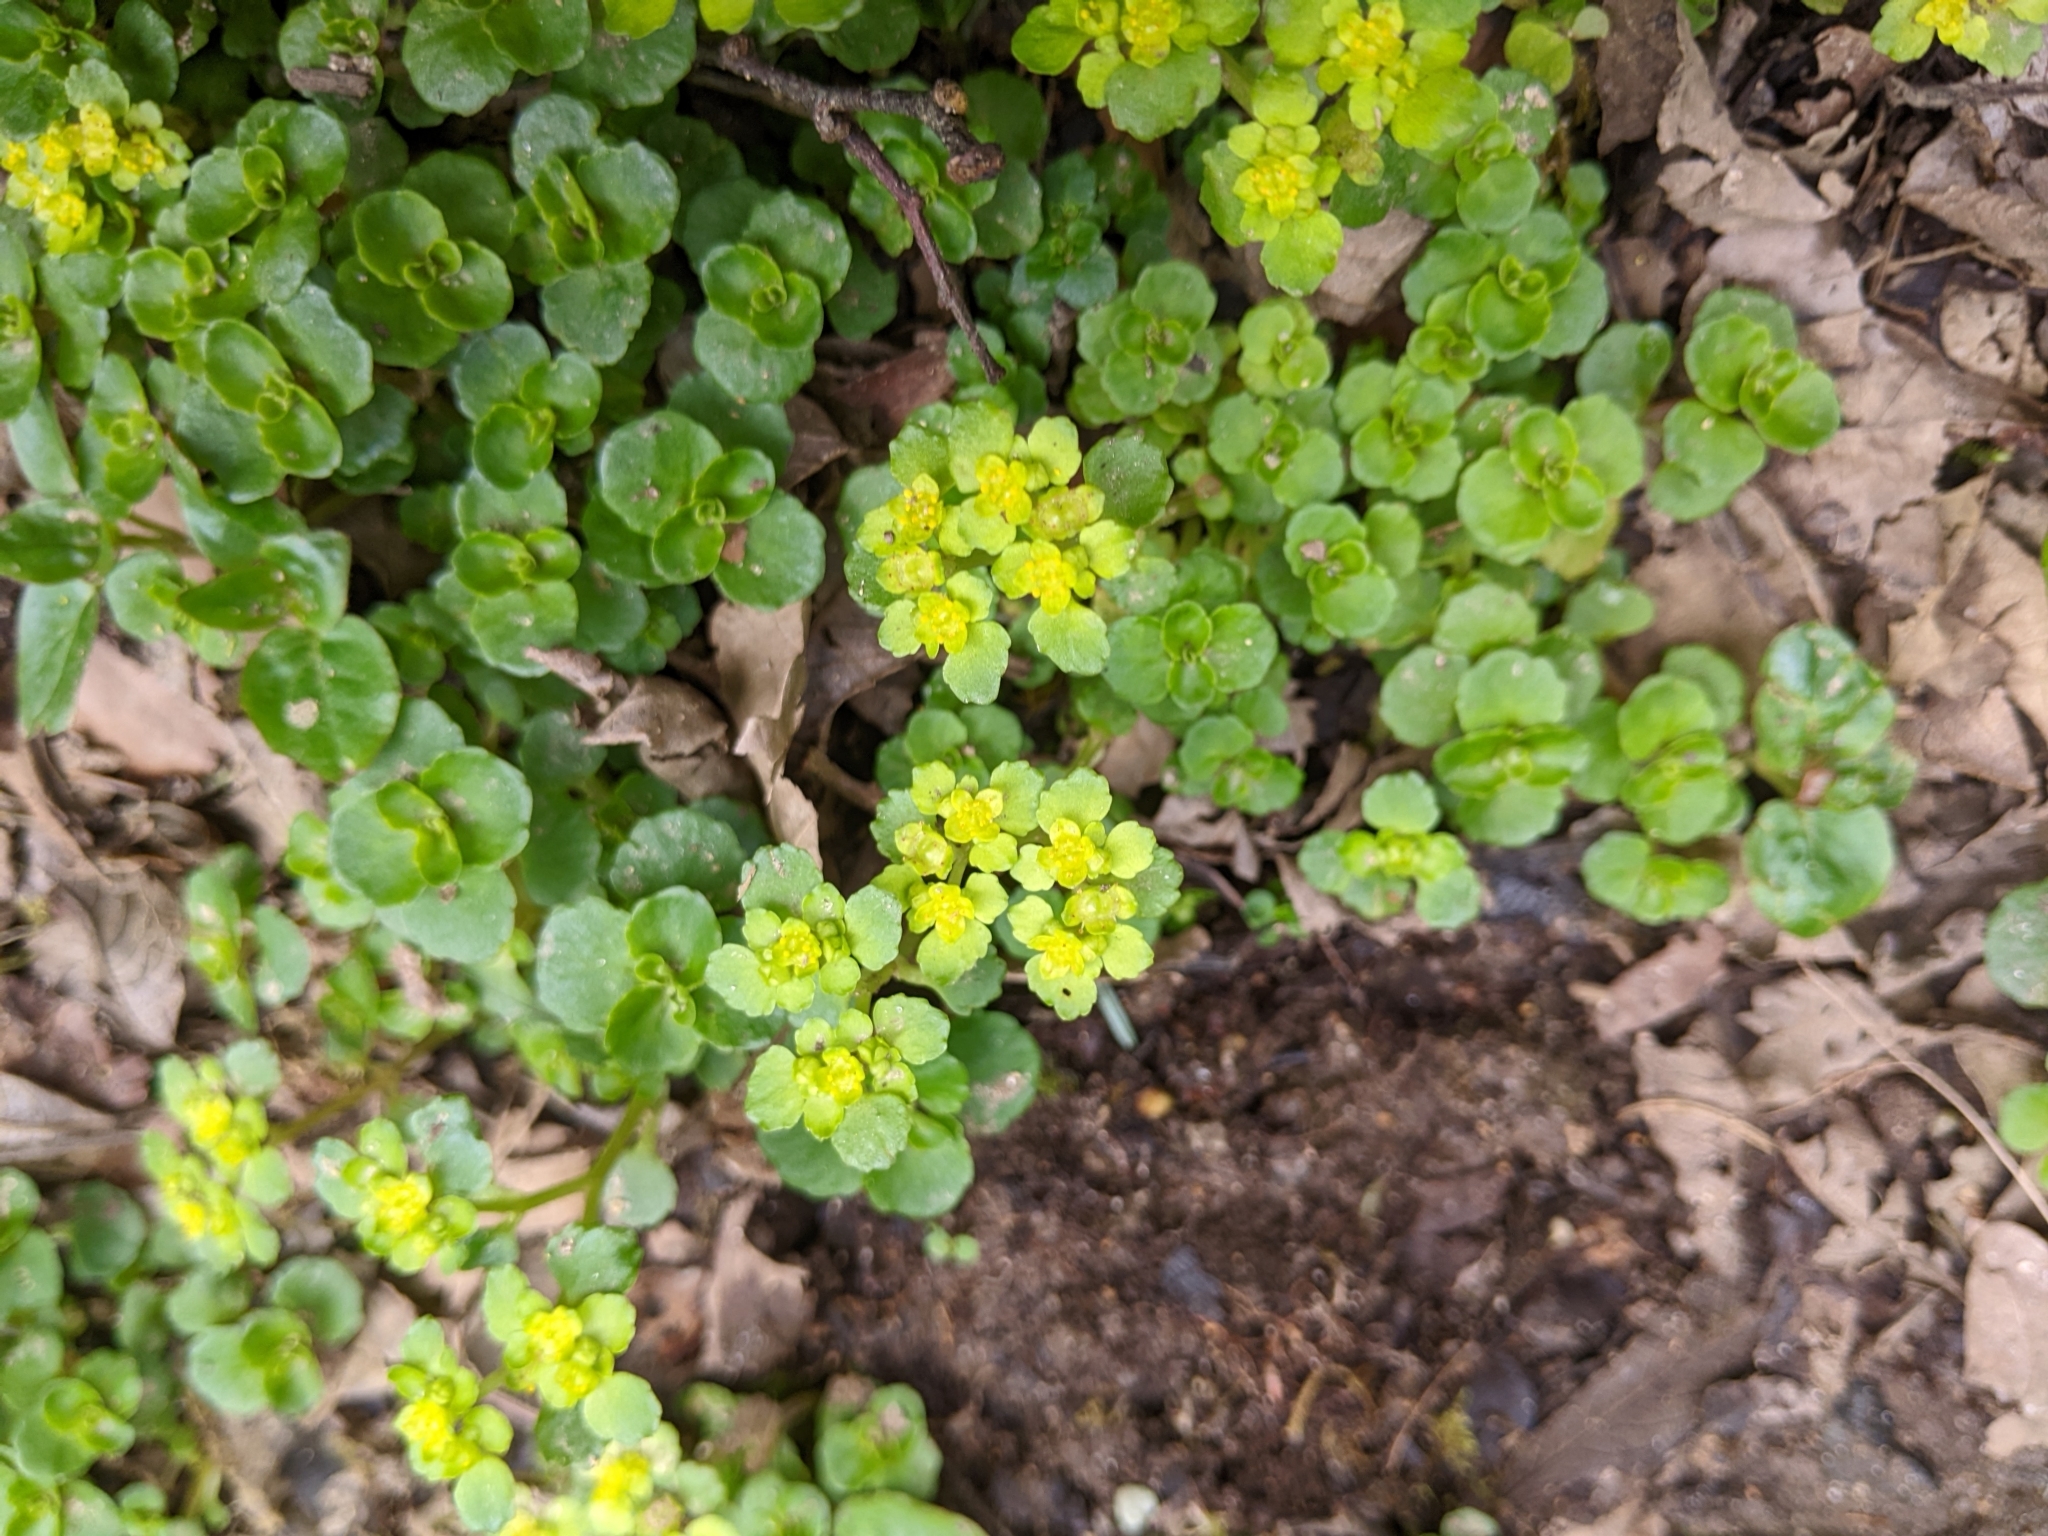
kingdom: Plantae
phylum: Tracheophyta
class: Magnoliopsida
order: Saxifragales
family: Saxifragaceae
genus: Chrysosplenium
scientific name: Chrysosplenium oppositifolium
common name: Opposite-leaved golden-saxifrage
